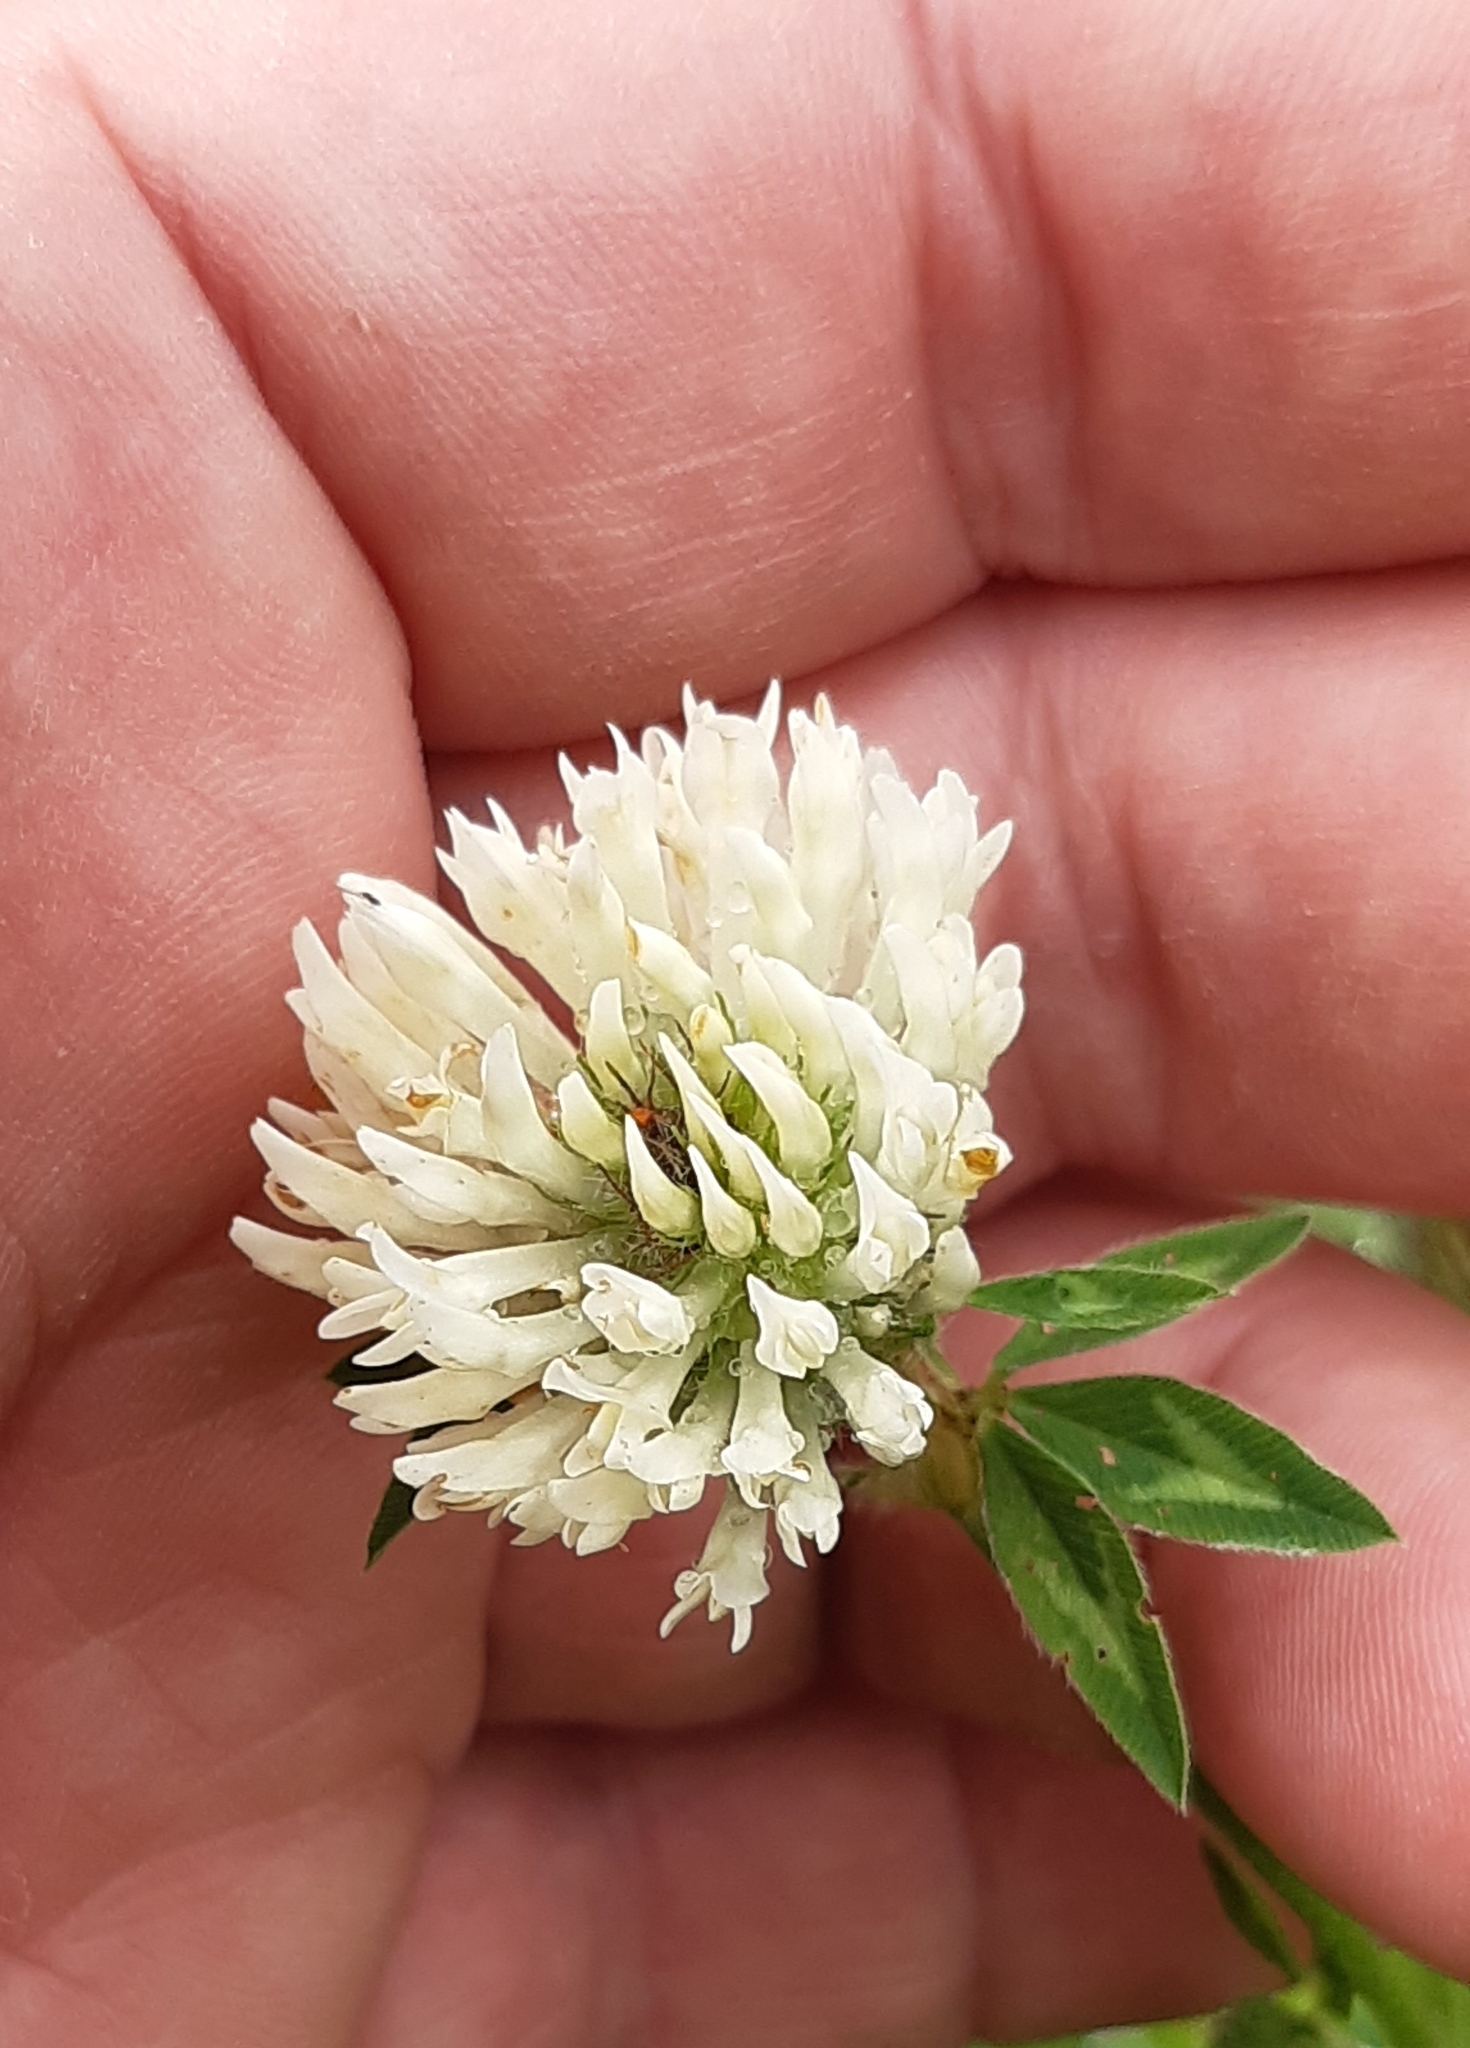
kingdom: Plantae
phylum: Tracheophyta
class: Magnoliopsida
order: Fabales
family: Fabaceae
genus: Trifolium
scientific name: Trifolium pratense
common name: Red clover
